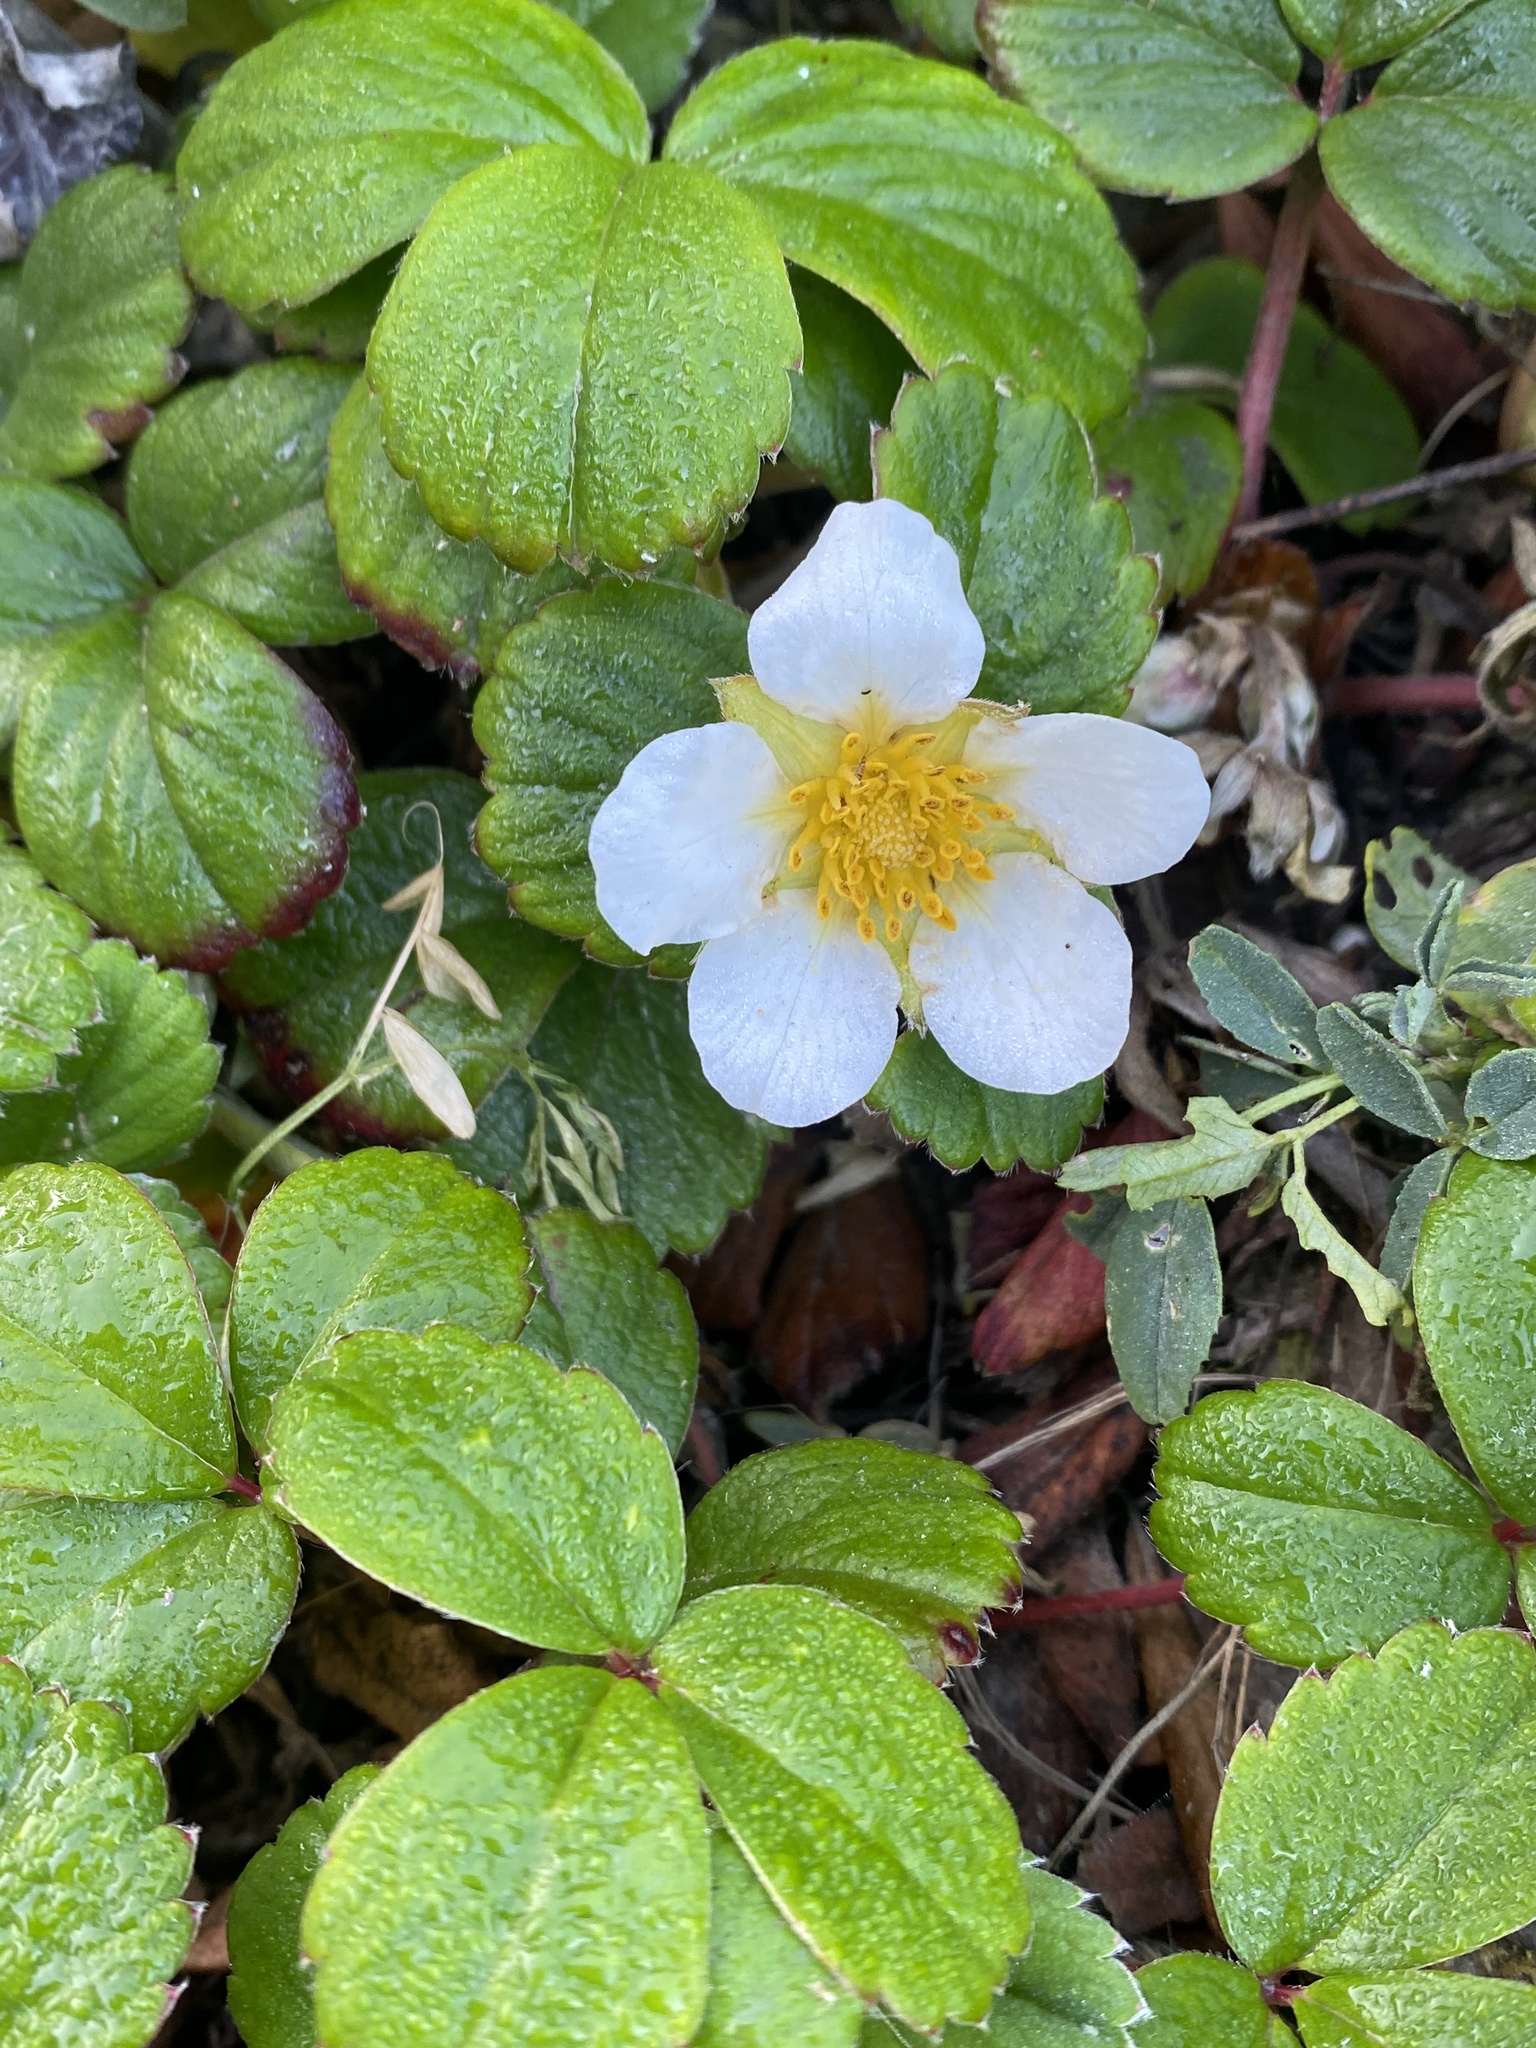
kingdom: Plantae
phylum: Tracheophyta
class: Magnoliopsida
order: Rosales
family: Rosaceae
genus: Fragaria
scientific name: Fragaria chiloensis
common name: Beach strawberry
